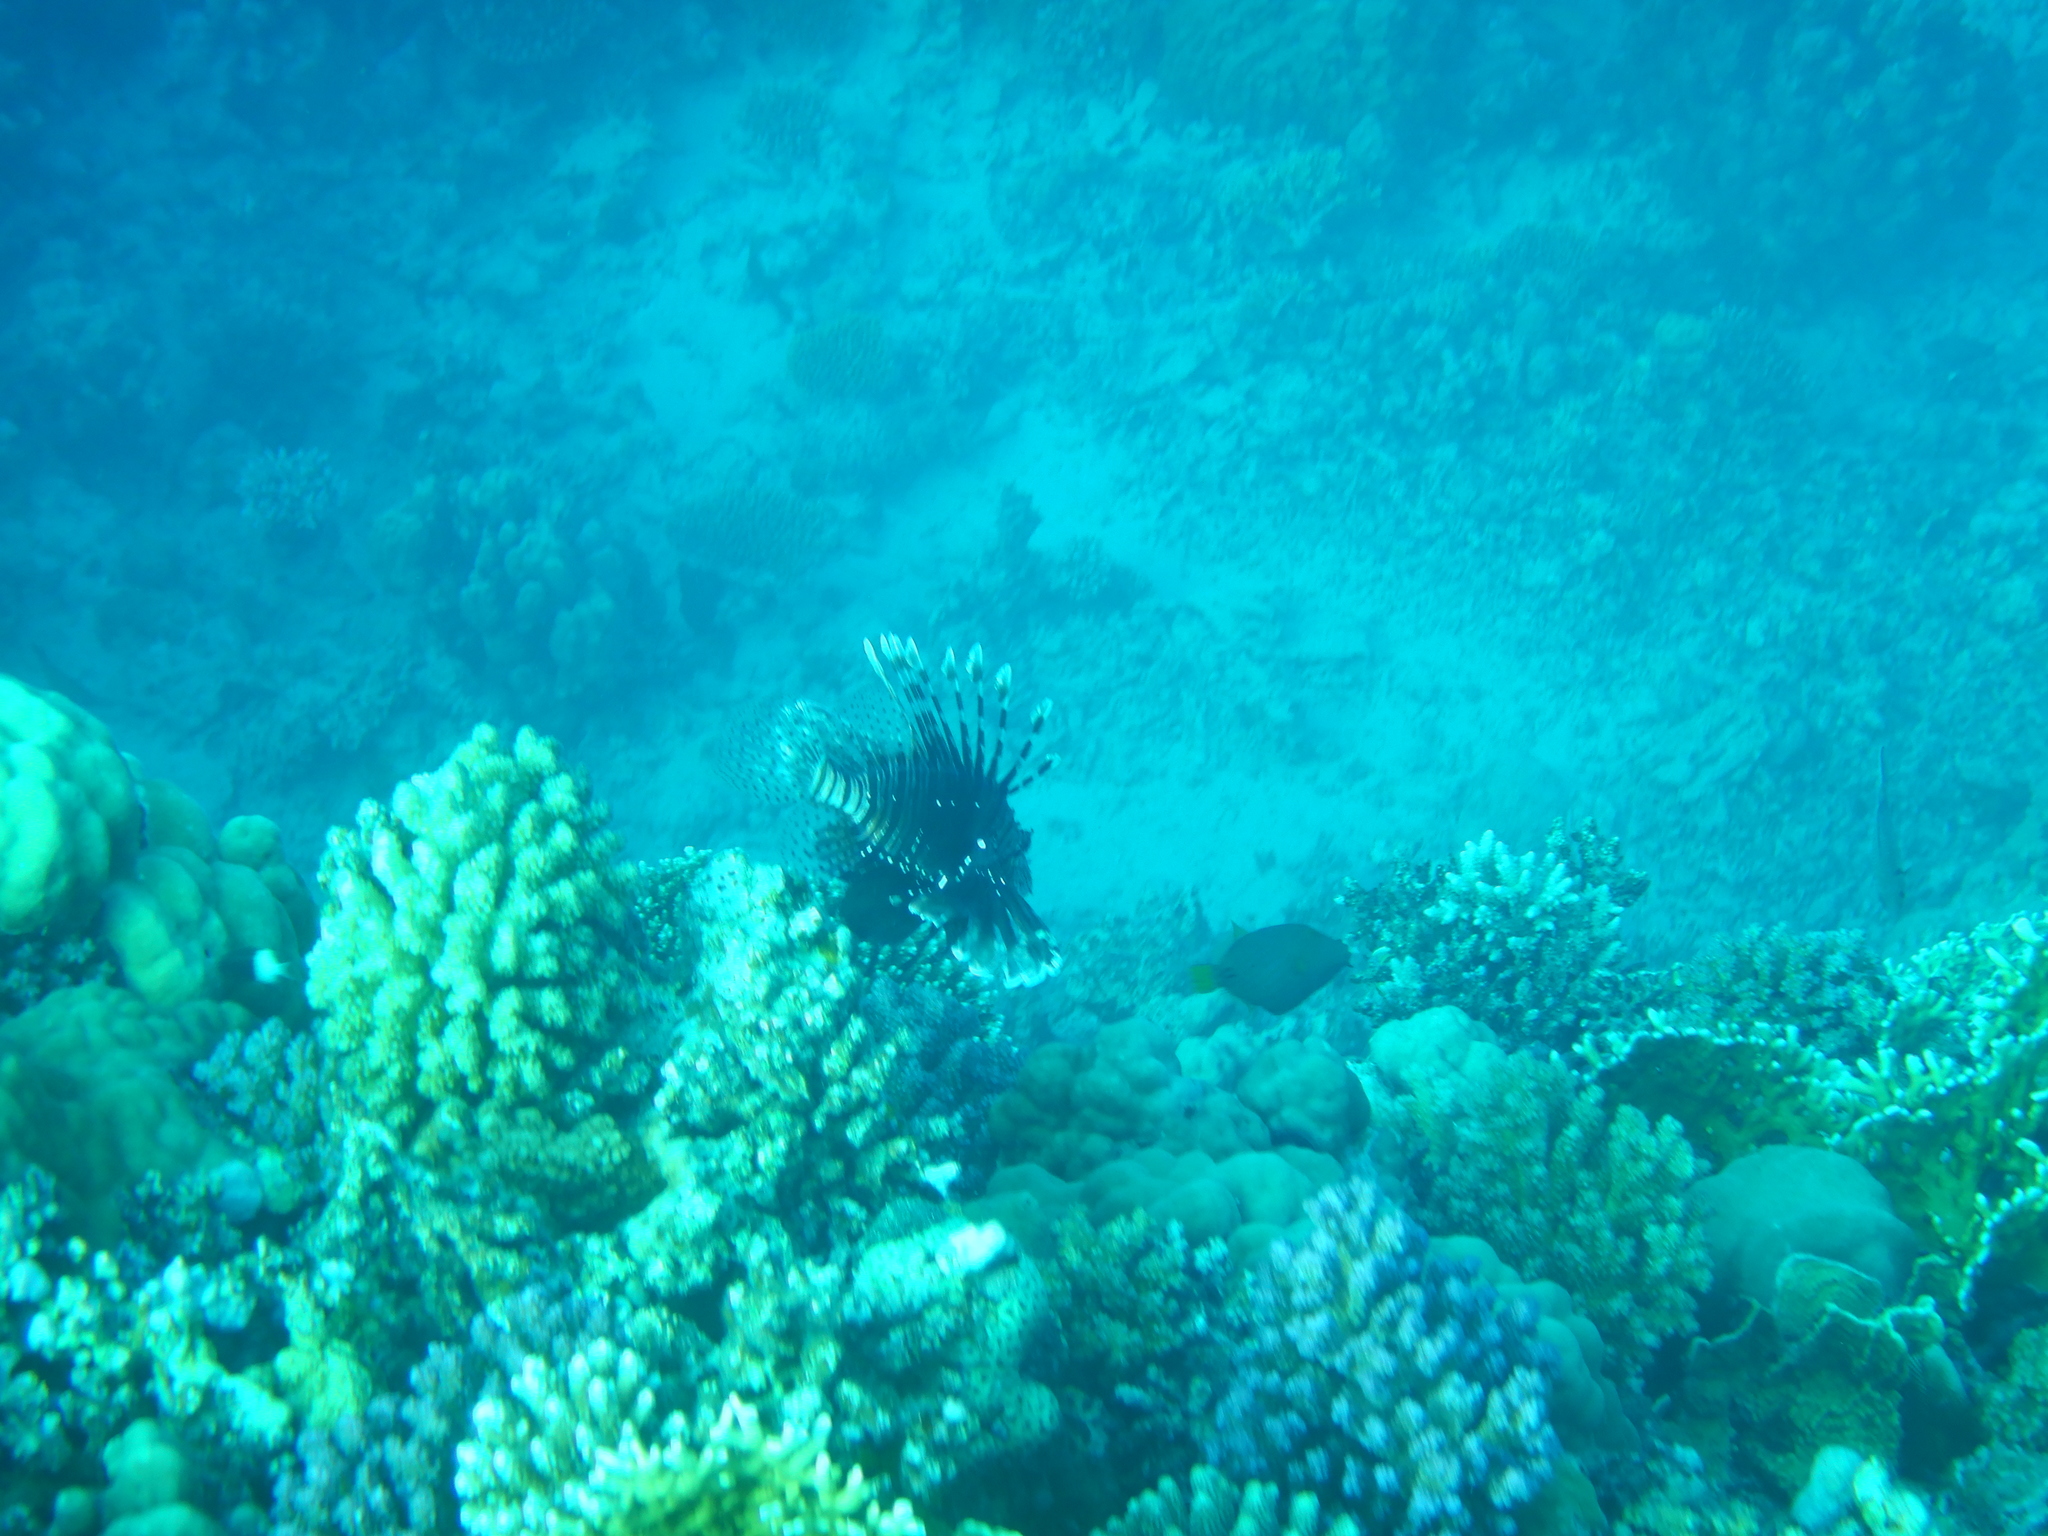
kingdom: Animalia
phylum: Chordata
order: Scorpaeniformes
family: Scorpaenidae
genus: Pterois
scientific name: Pterois miles
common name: Devil firefish
